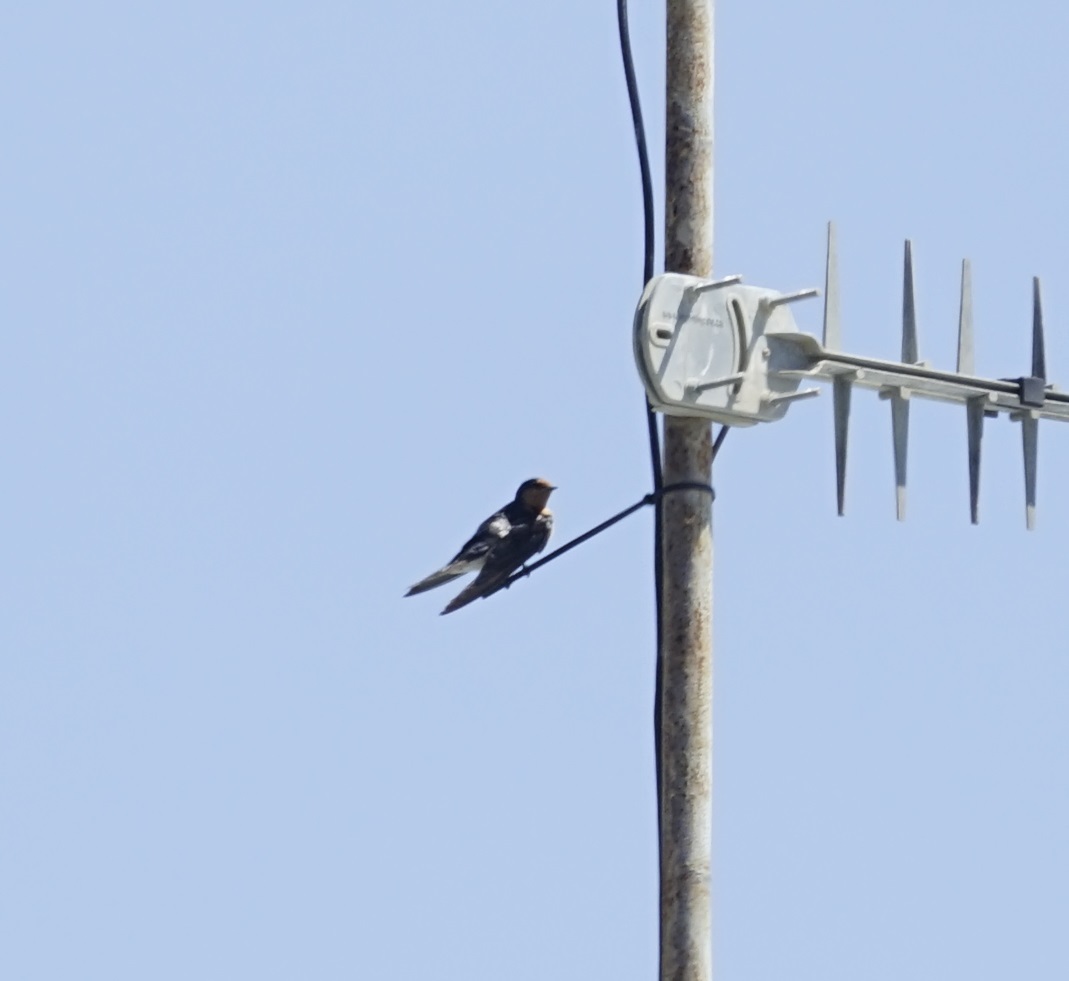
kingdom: Animalia
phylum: Chordata
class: Aves
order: Passeriformes
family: Hirundinidae
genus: Hirundo
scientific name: Hirundo neoxena
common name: Welcome swallow
